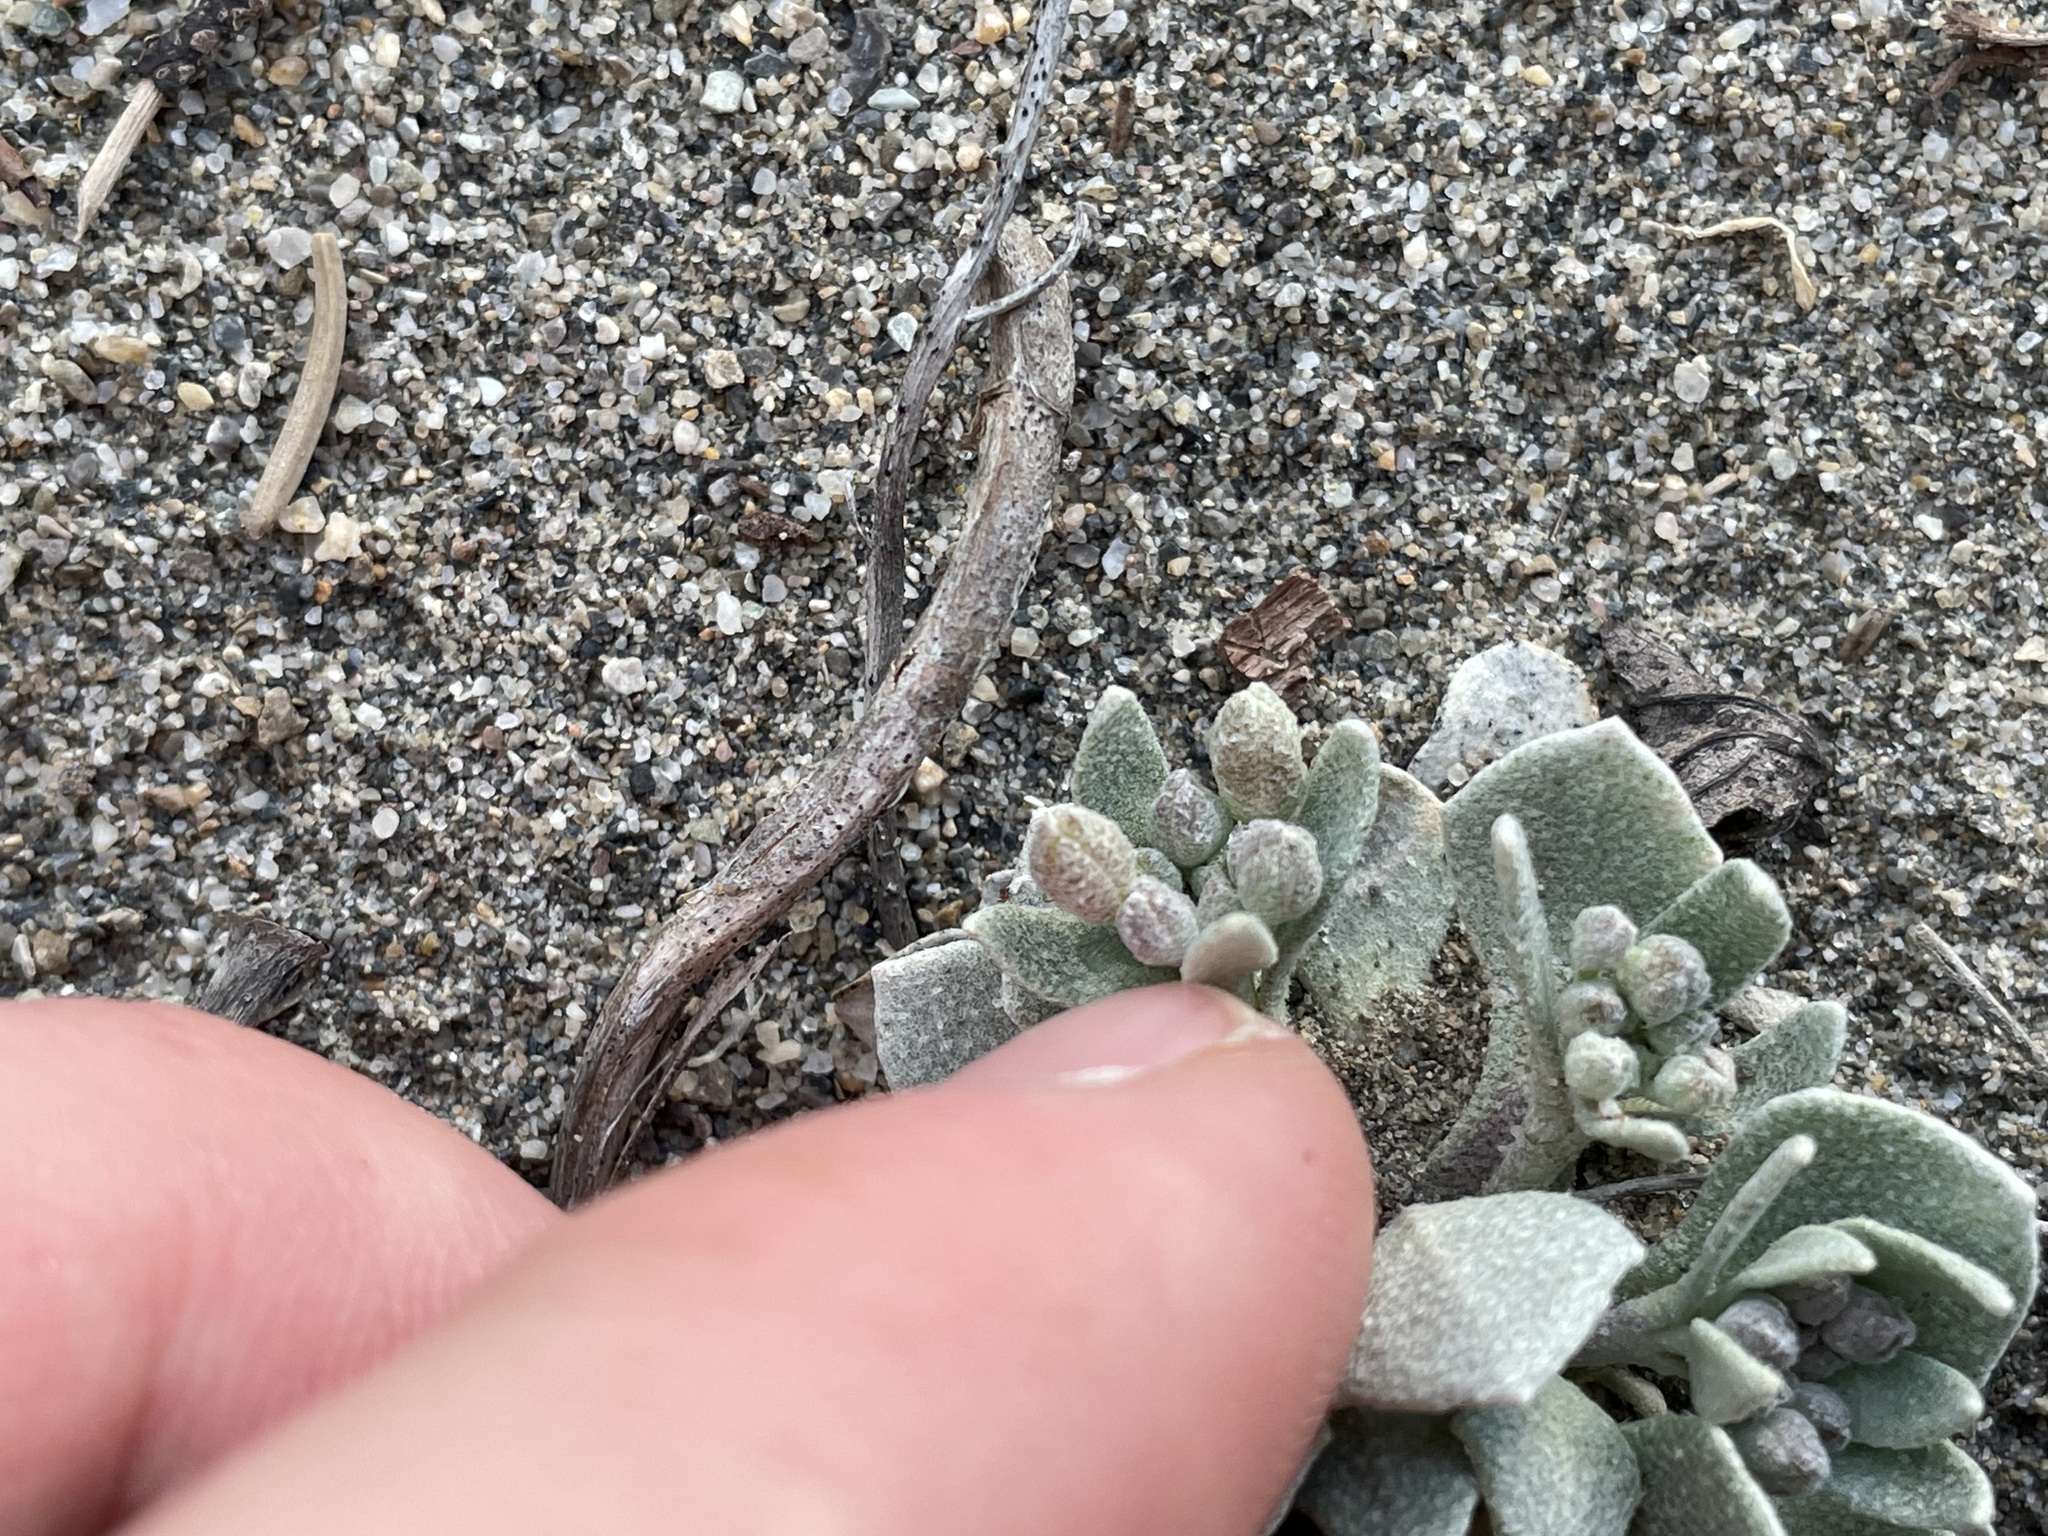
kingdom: Plantae
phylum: Tracheophyta
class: Magnoliopsida
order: Brassicales
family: Brassicaceae
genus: Physaria
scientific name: Physaria didymocarpa
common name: Common twinpod
